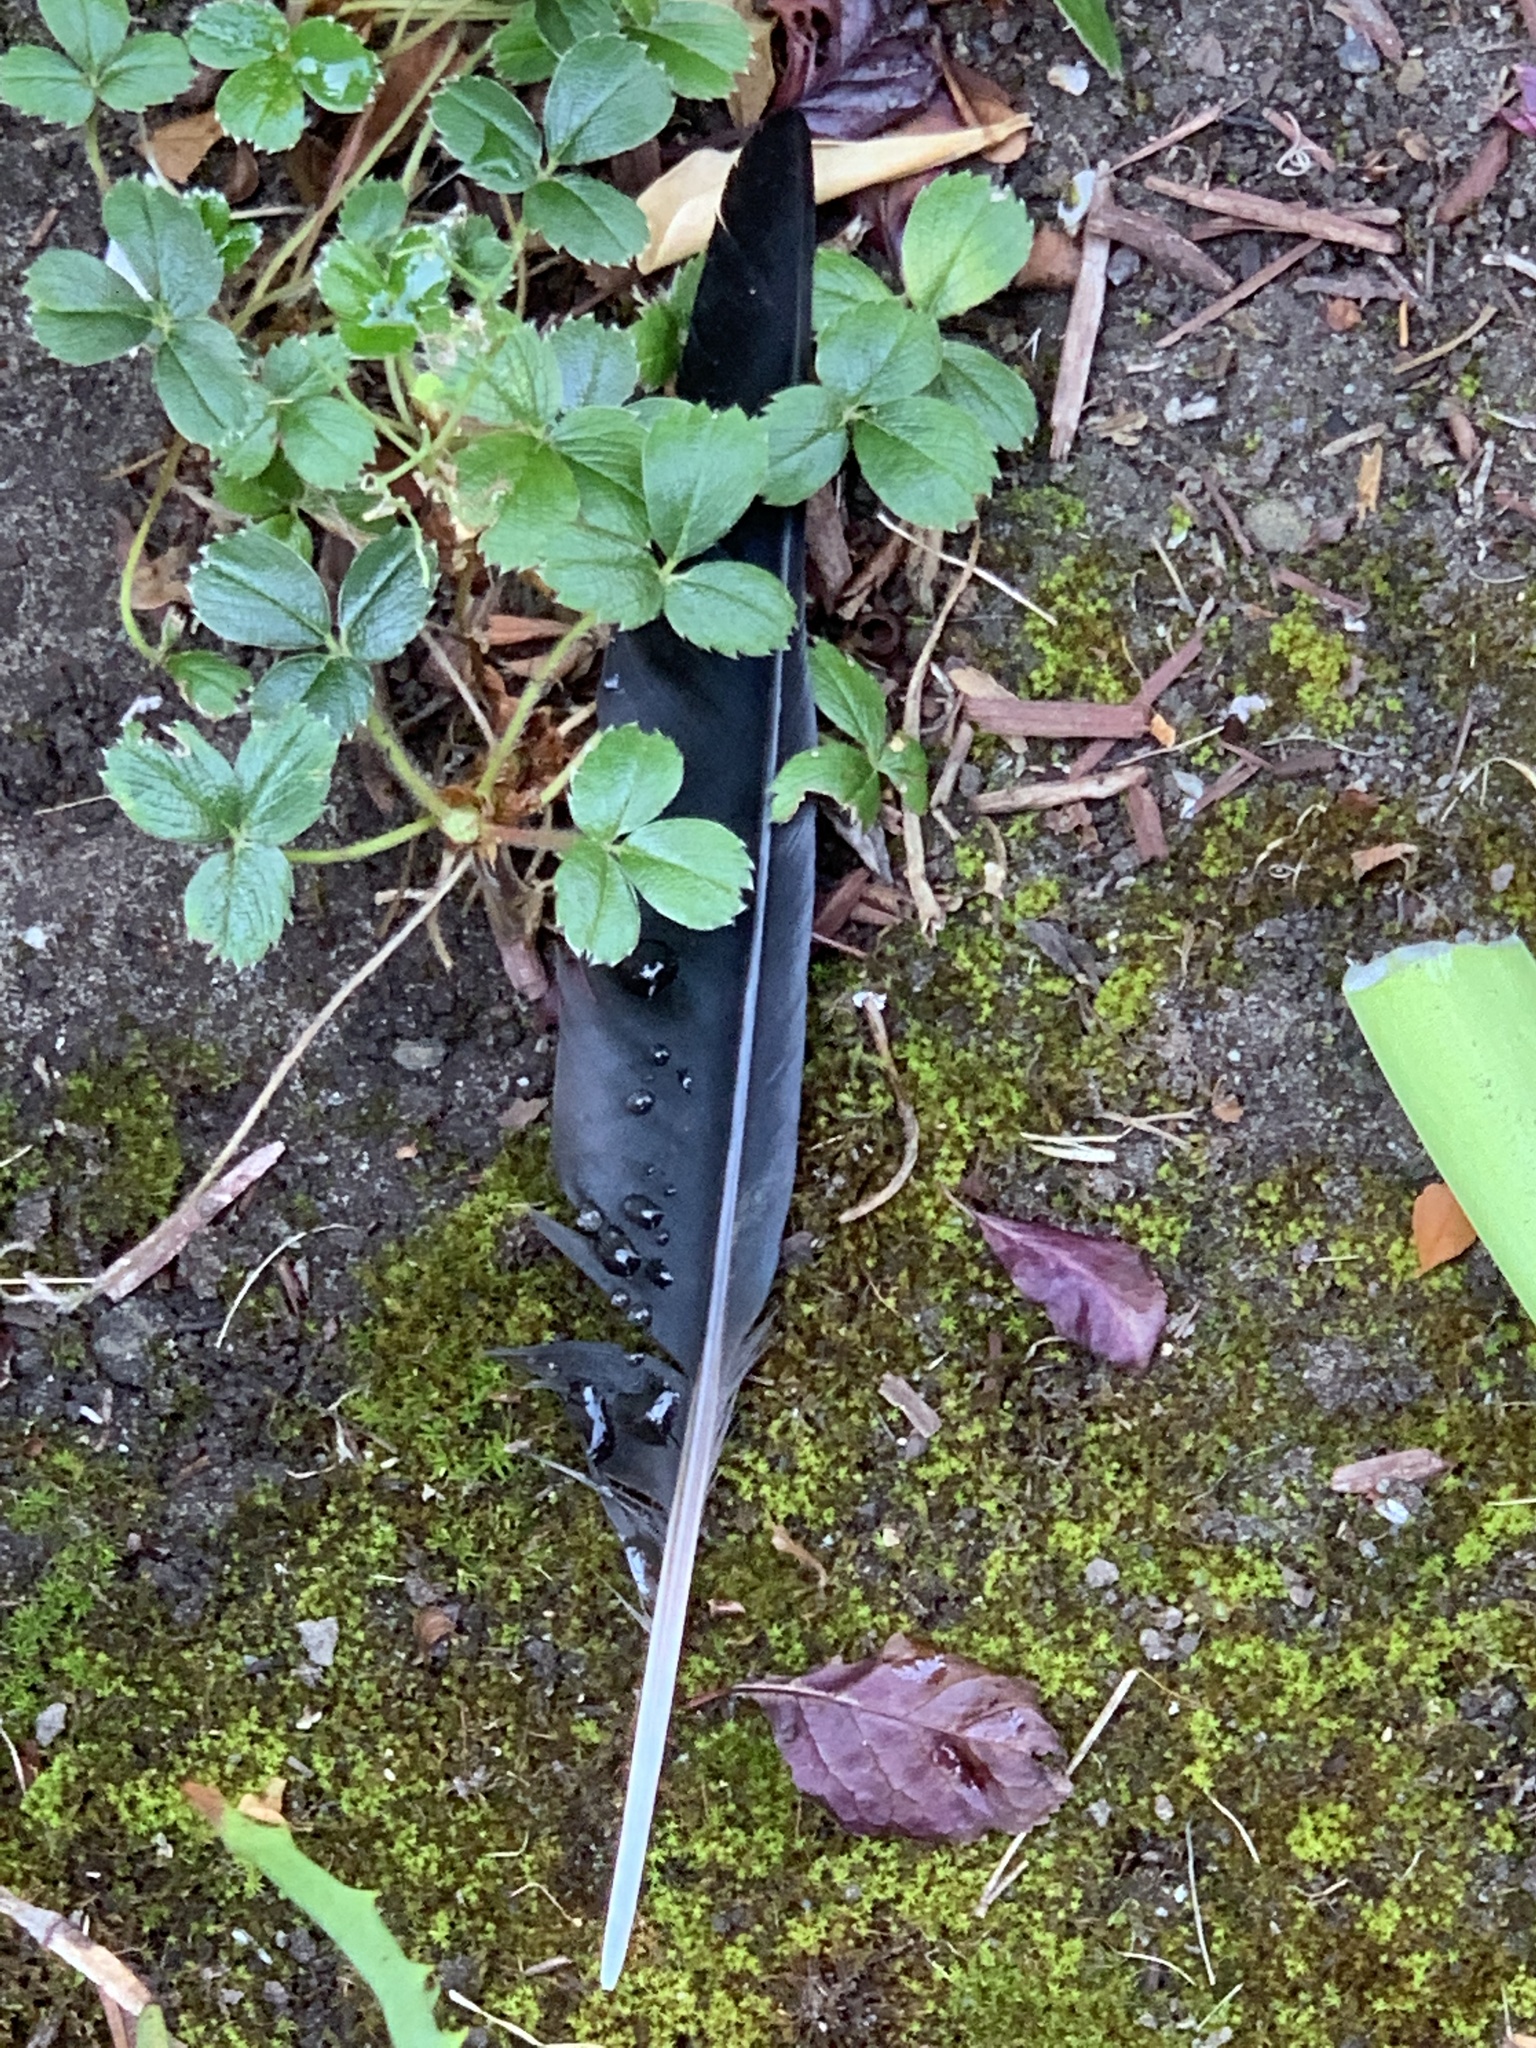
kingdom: Animalia
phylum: Chordata
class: Aves
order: Passeriformes
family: Corvidae
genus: Corvus
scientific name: Corvus brachyrhynchos
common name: American crow
